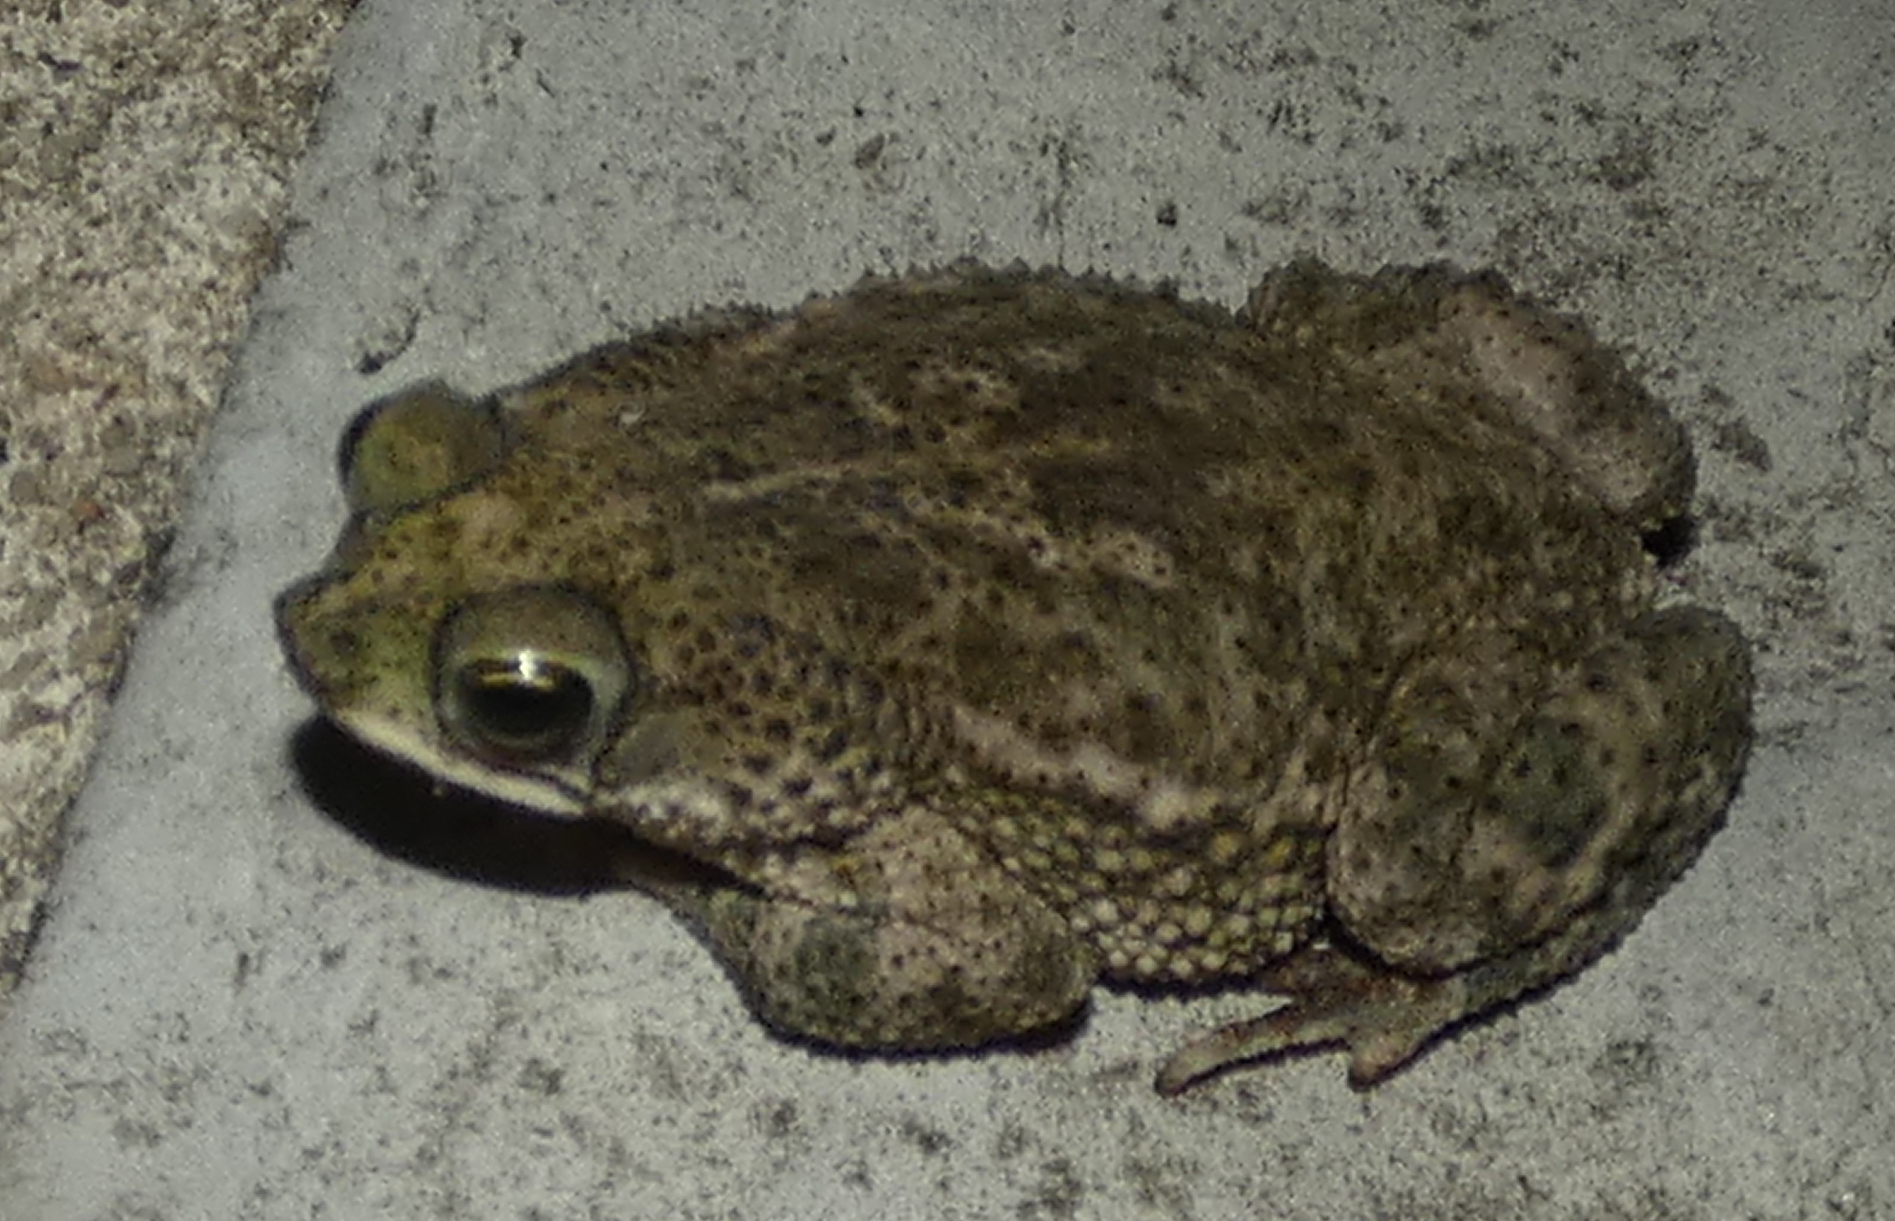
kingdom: Animalia
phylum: Chordata
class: Amphibia
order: Anura
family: Bufonidae
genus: Rhinella
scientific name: Rhinella granulosa
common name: Common lesser toad
